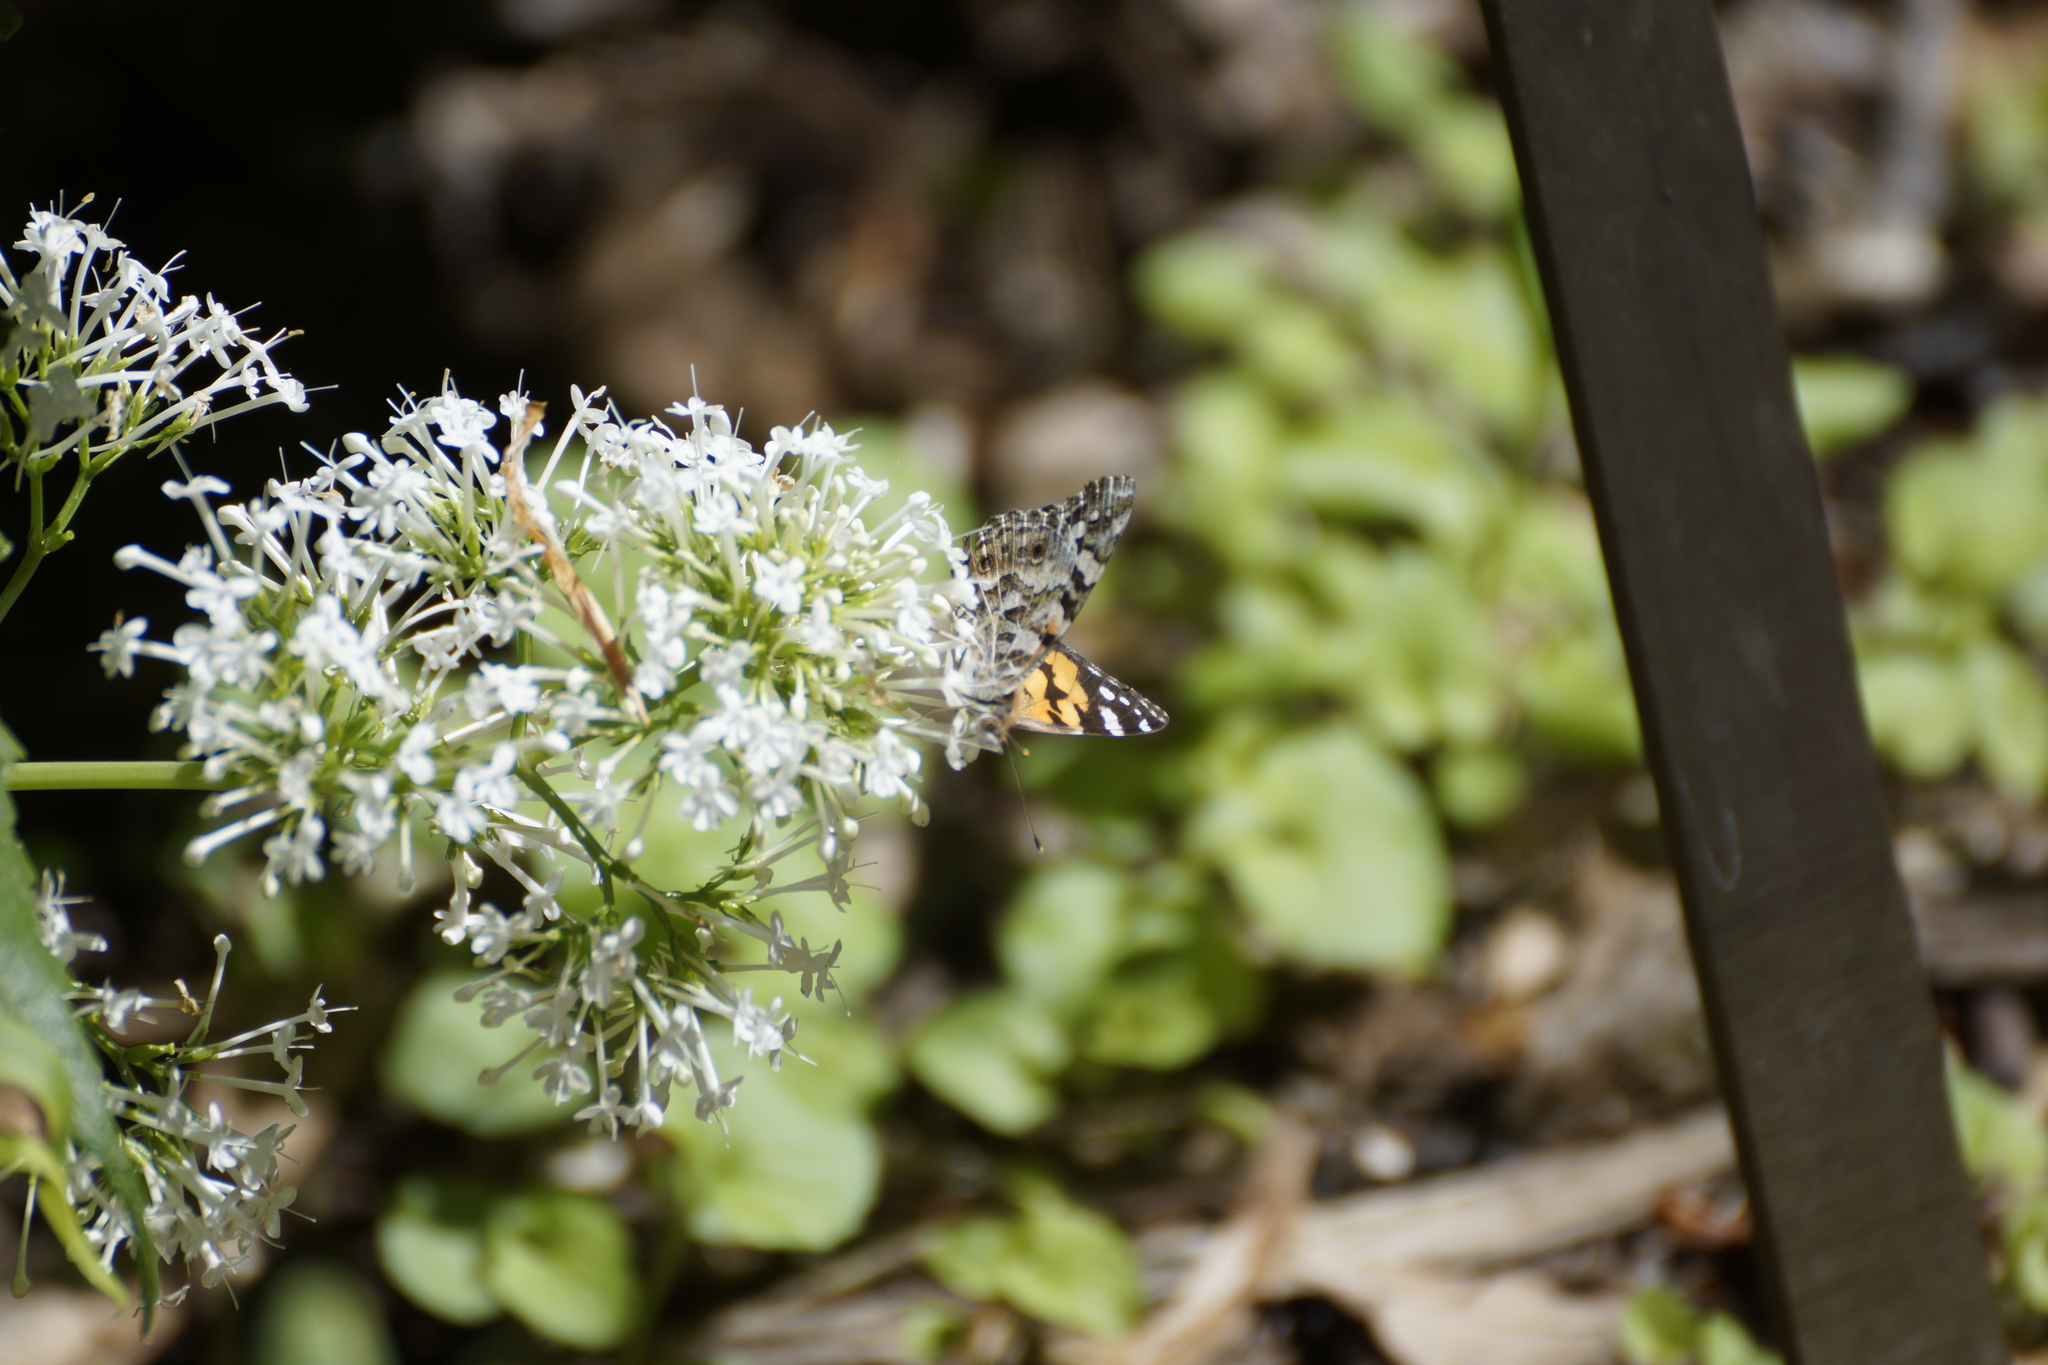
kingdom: Animalia
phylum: Arthropoda
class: Insecta
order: Lepidoptera
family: Nymphalidae
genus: Vanessa
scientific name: Vanessa kershawi
